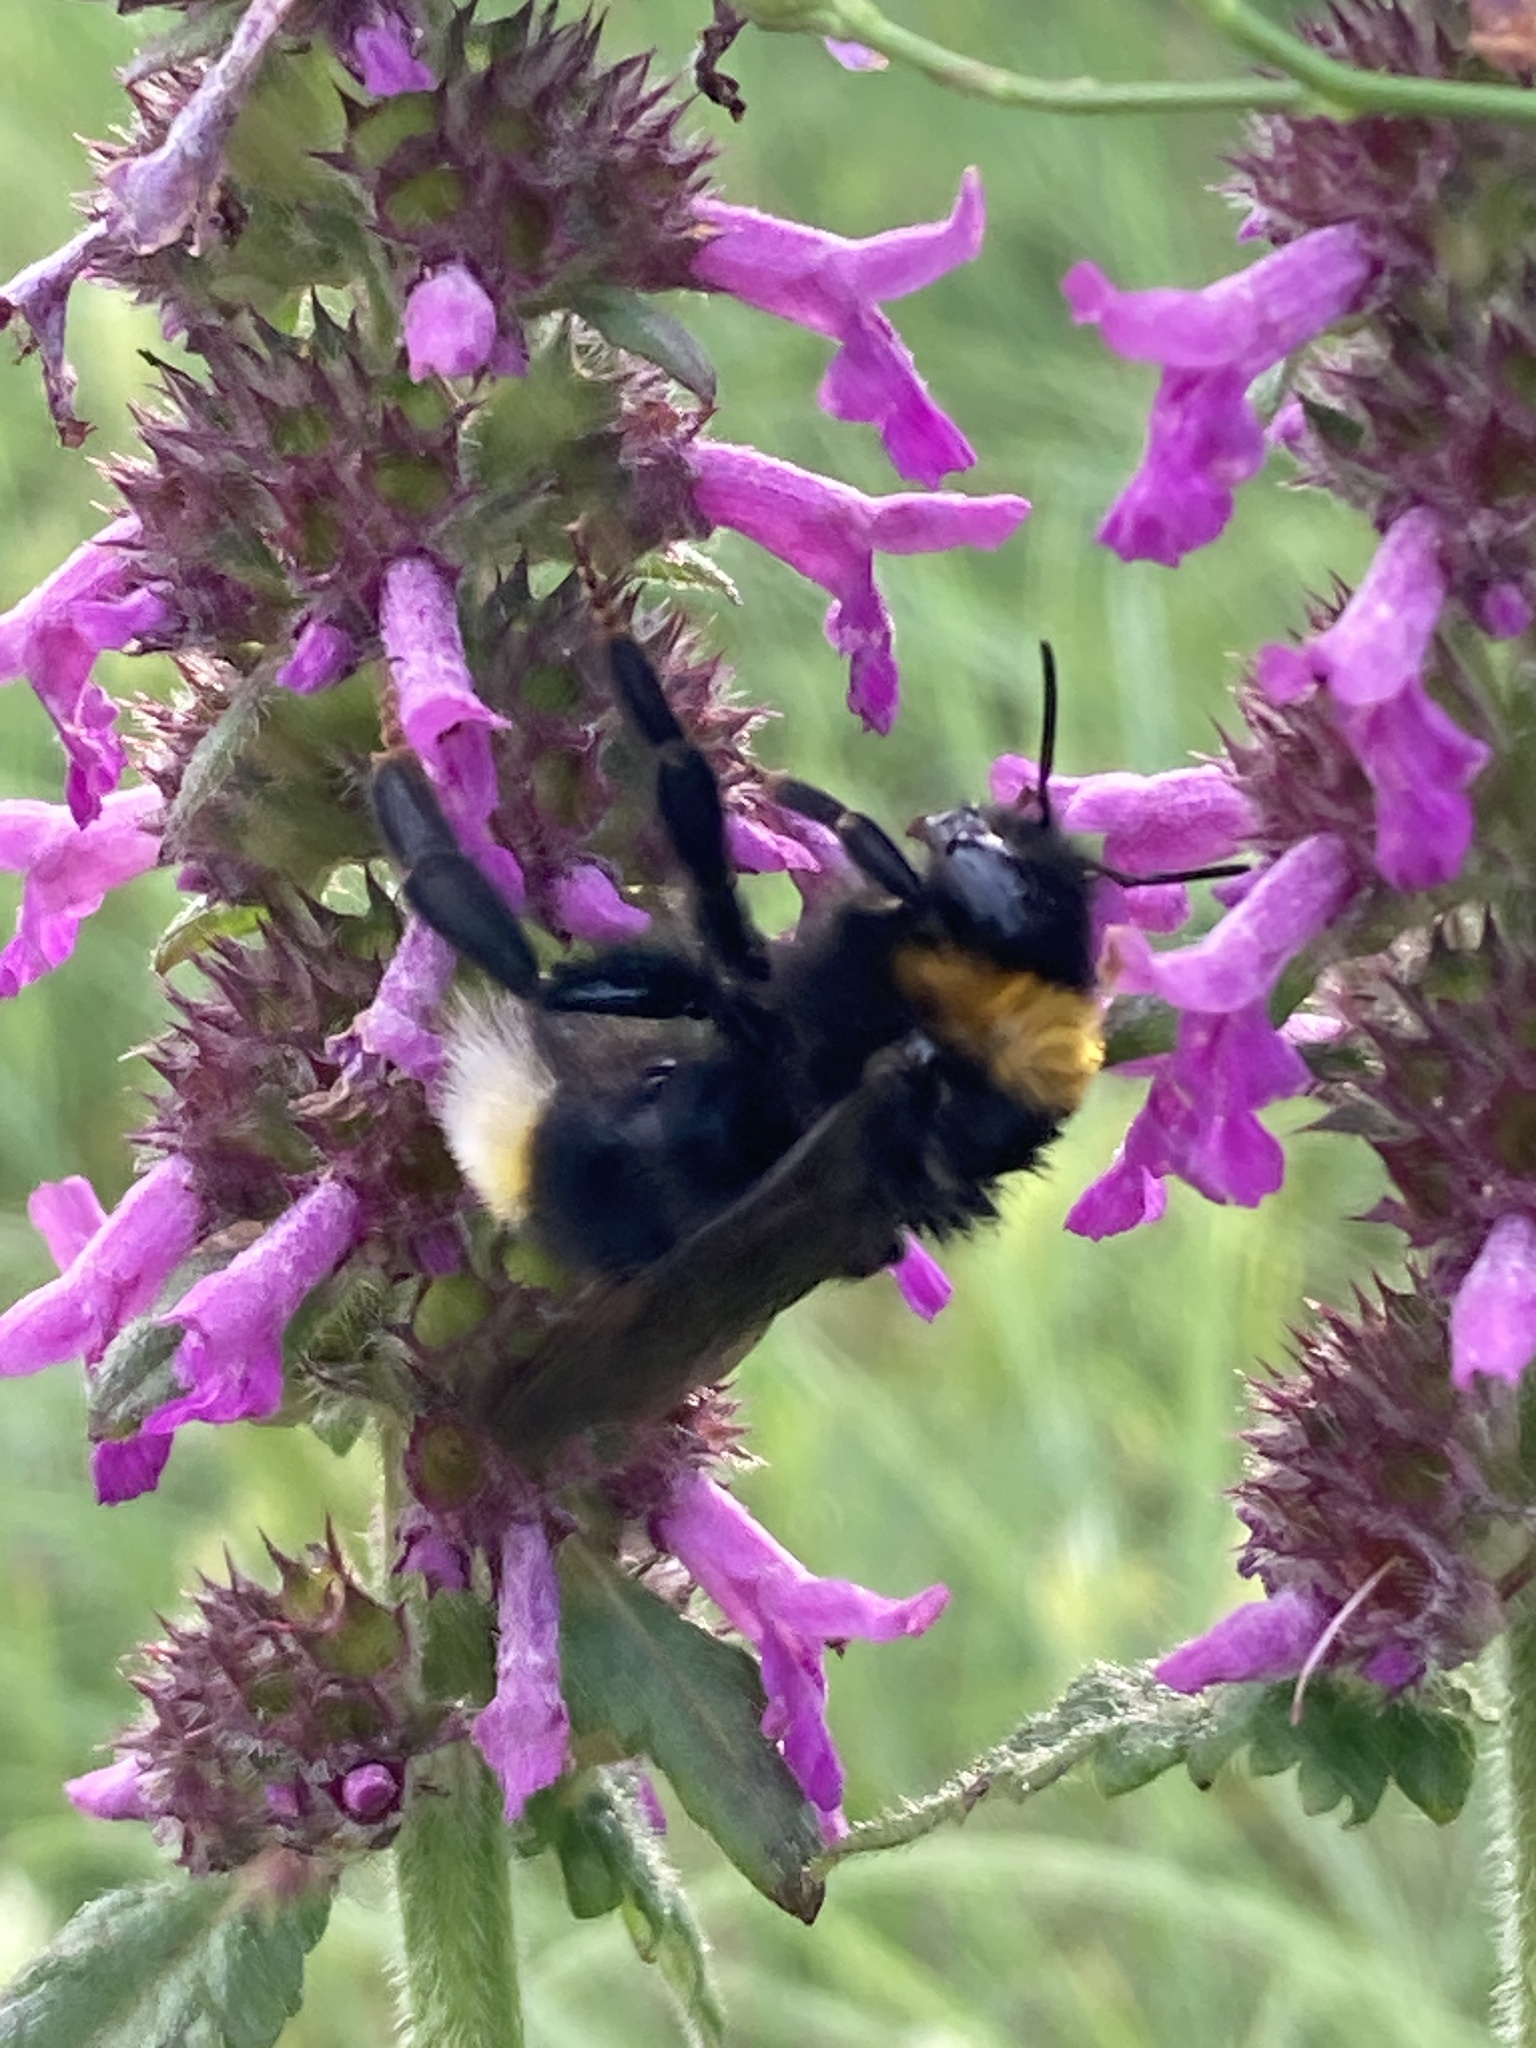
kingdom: Animalia
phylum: Arthropoda
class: Insecta
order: Hymenoptera
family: Apidae
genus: Bombus
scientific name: Bombus vestalis
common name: Vestal cuckoo bee
